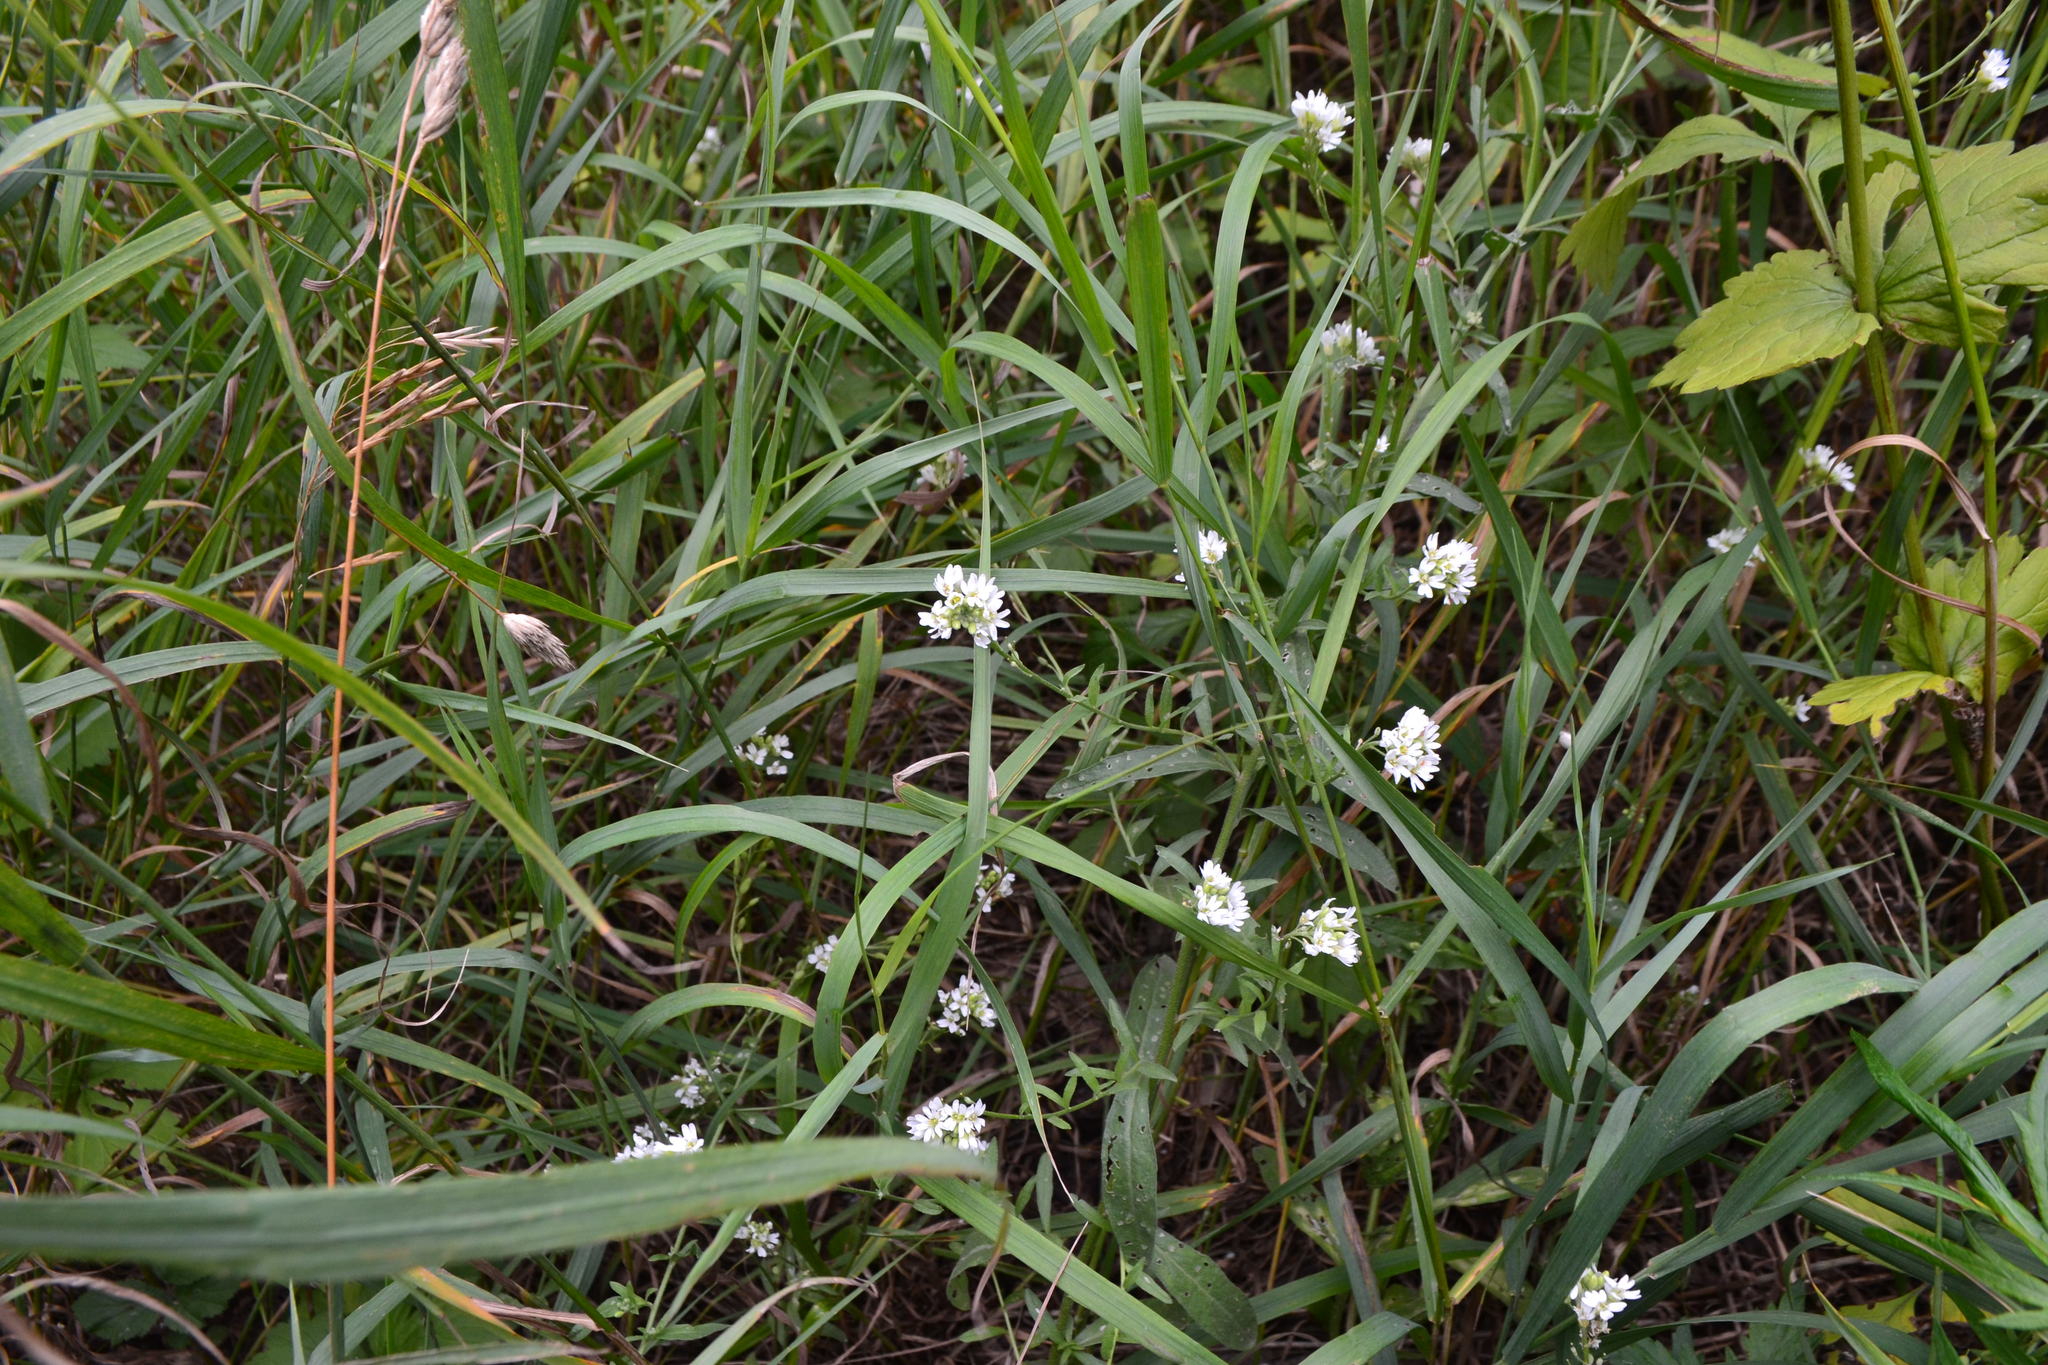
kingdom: Plantae
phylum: Tracheophyta
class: Magnoliopsida
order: Brassicales
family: Brassicaceae
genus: Berteroa
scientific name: Berteroa incana
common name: Hoary alison
